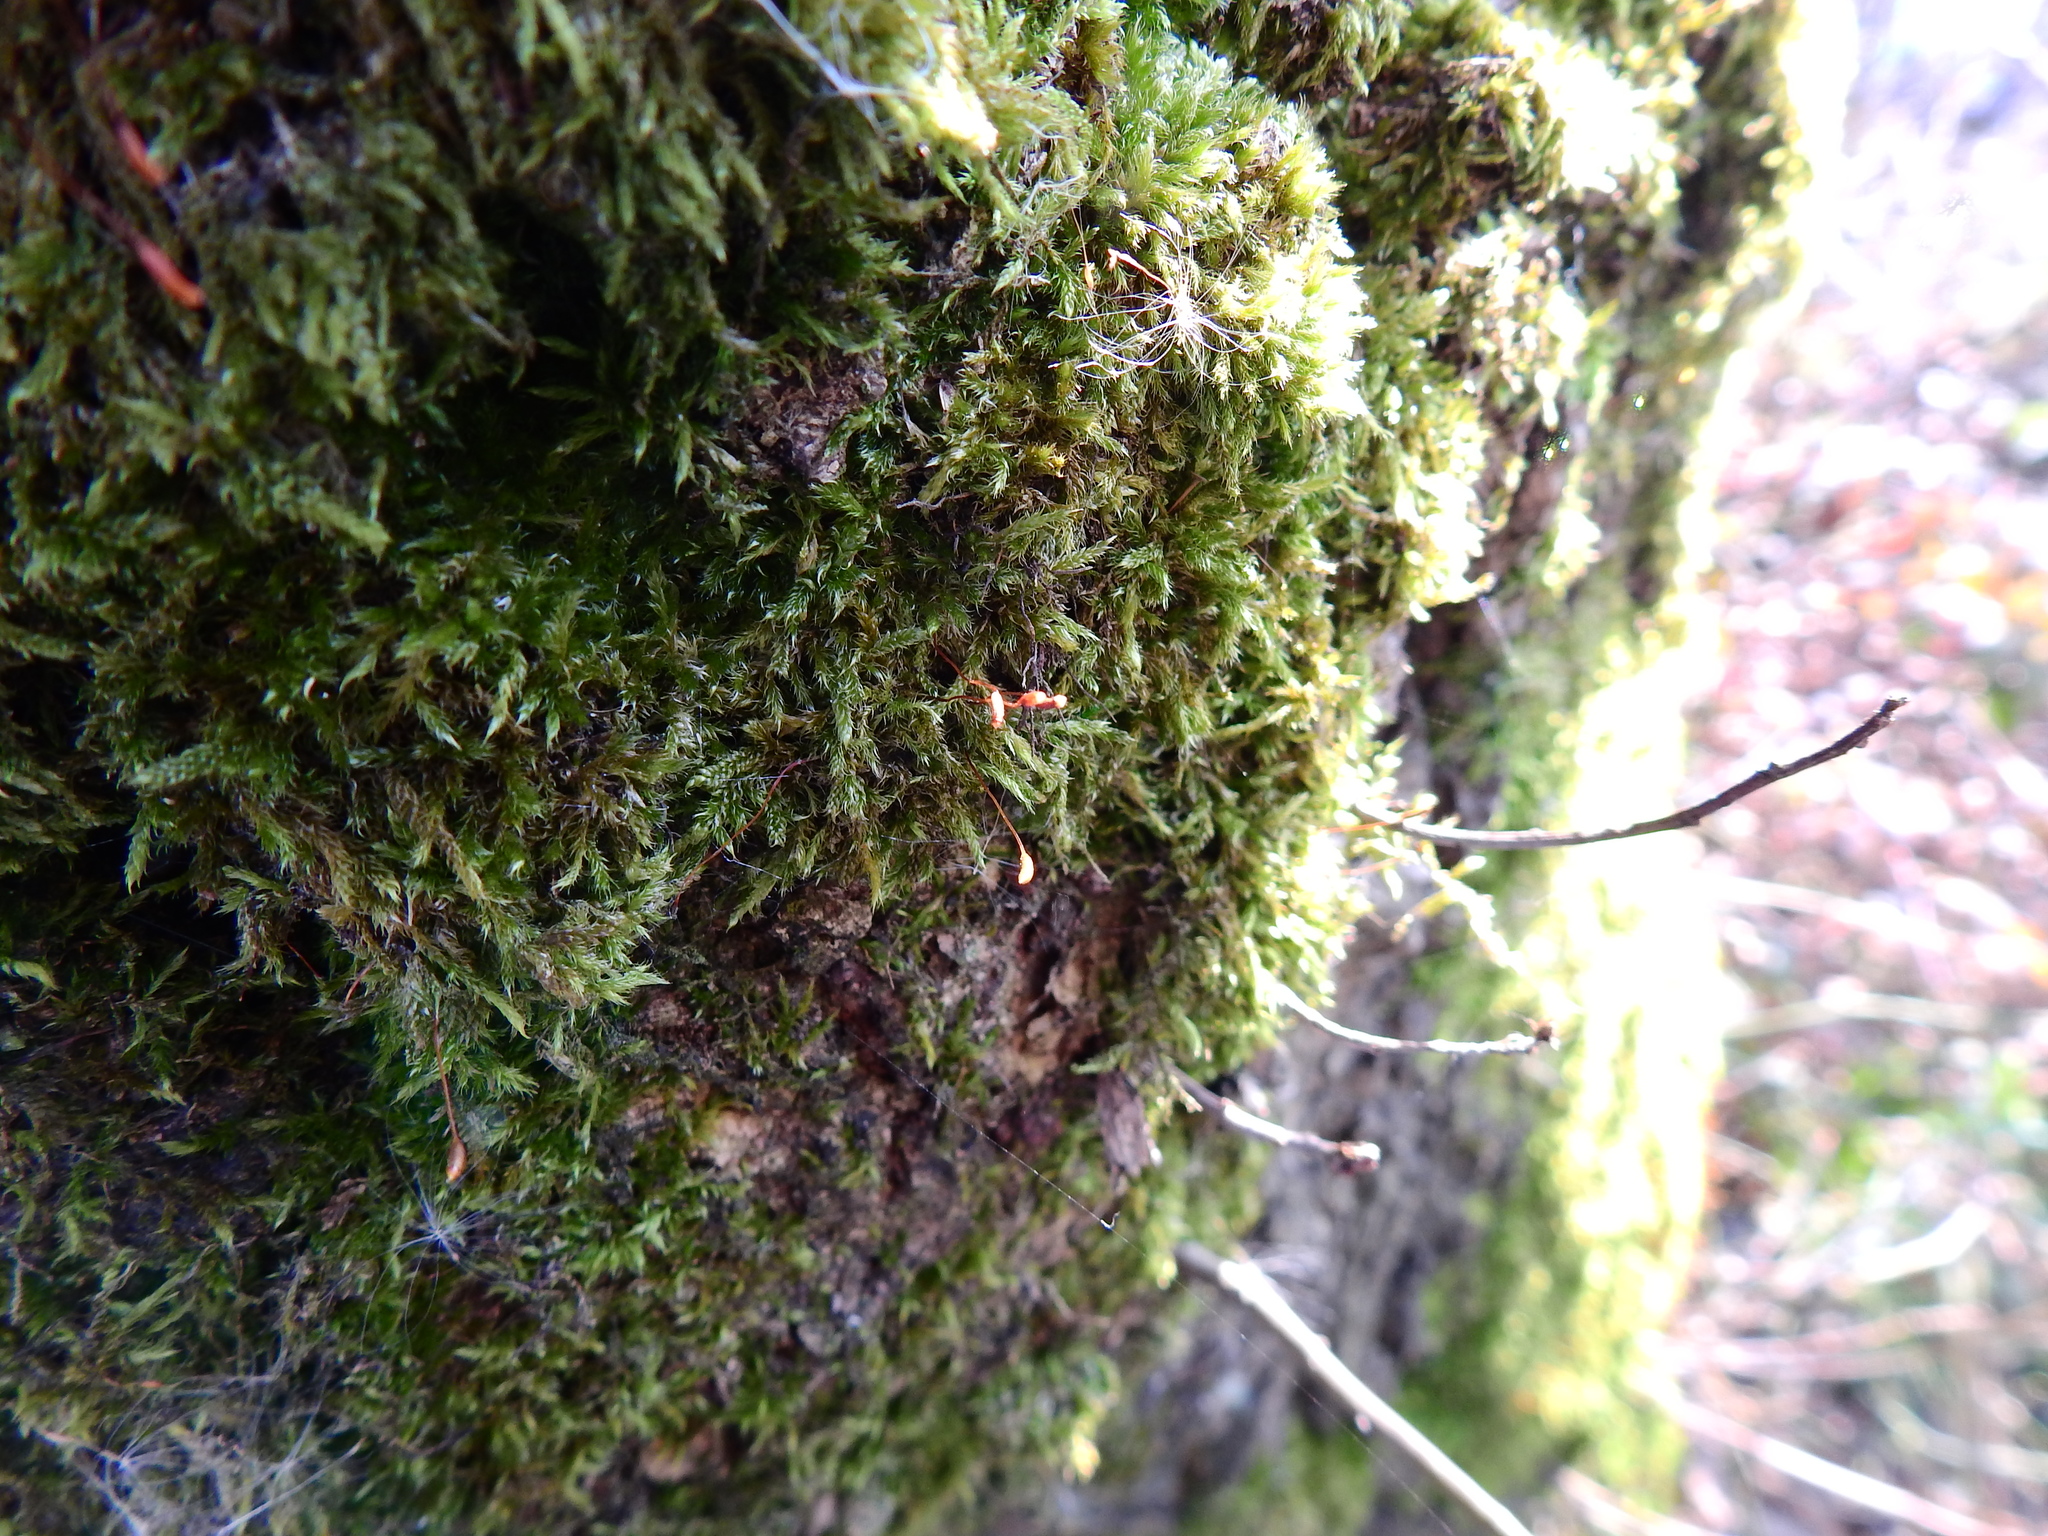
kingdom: Plantae
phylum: Bryophyta
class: Bryopsida
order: Hypnales
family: Hypnaceae
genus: Hypnum
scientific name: Hypnum cupressiforme
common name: Cypress-leaved plait-moss
